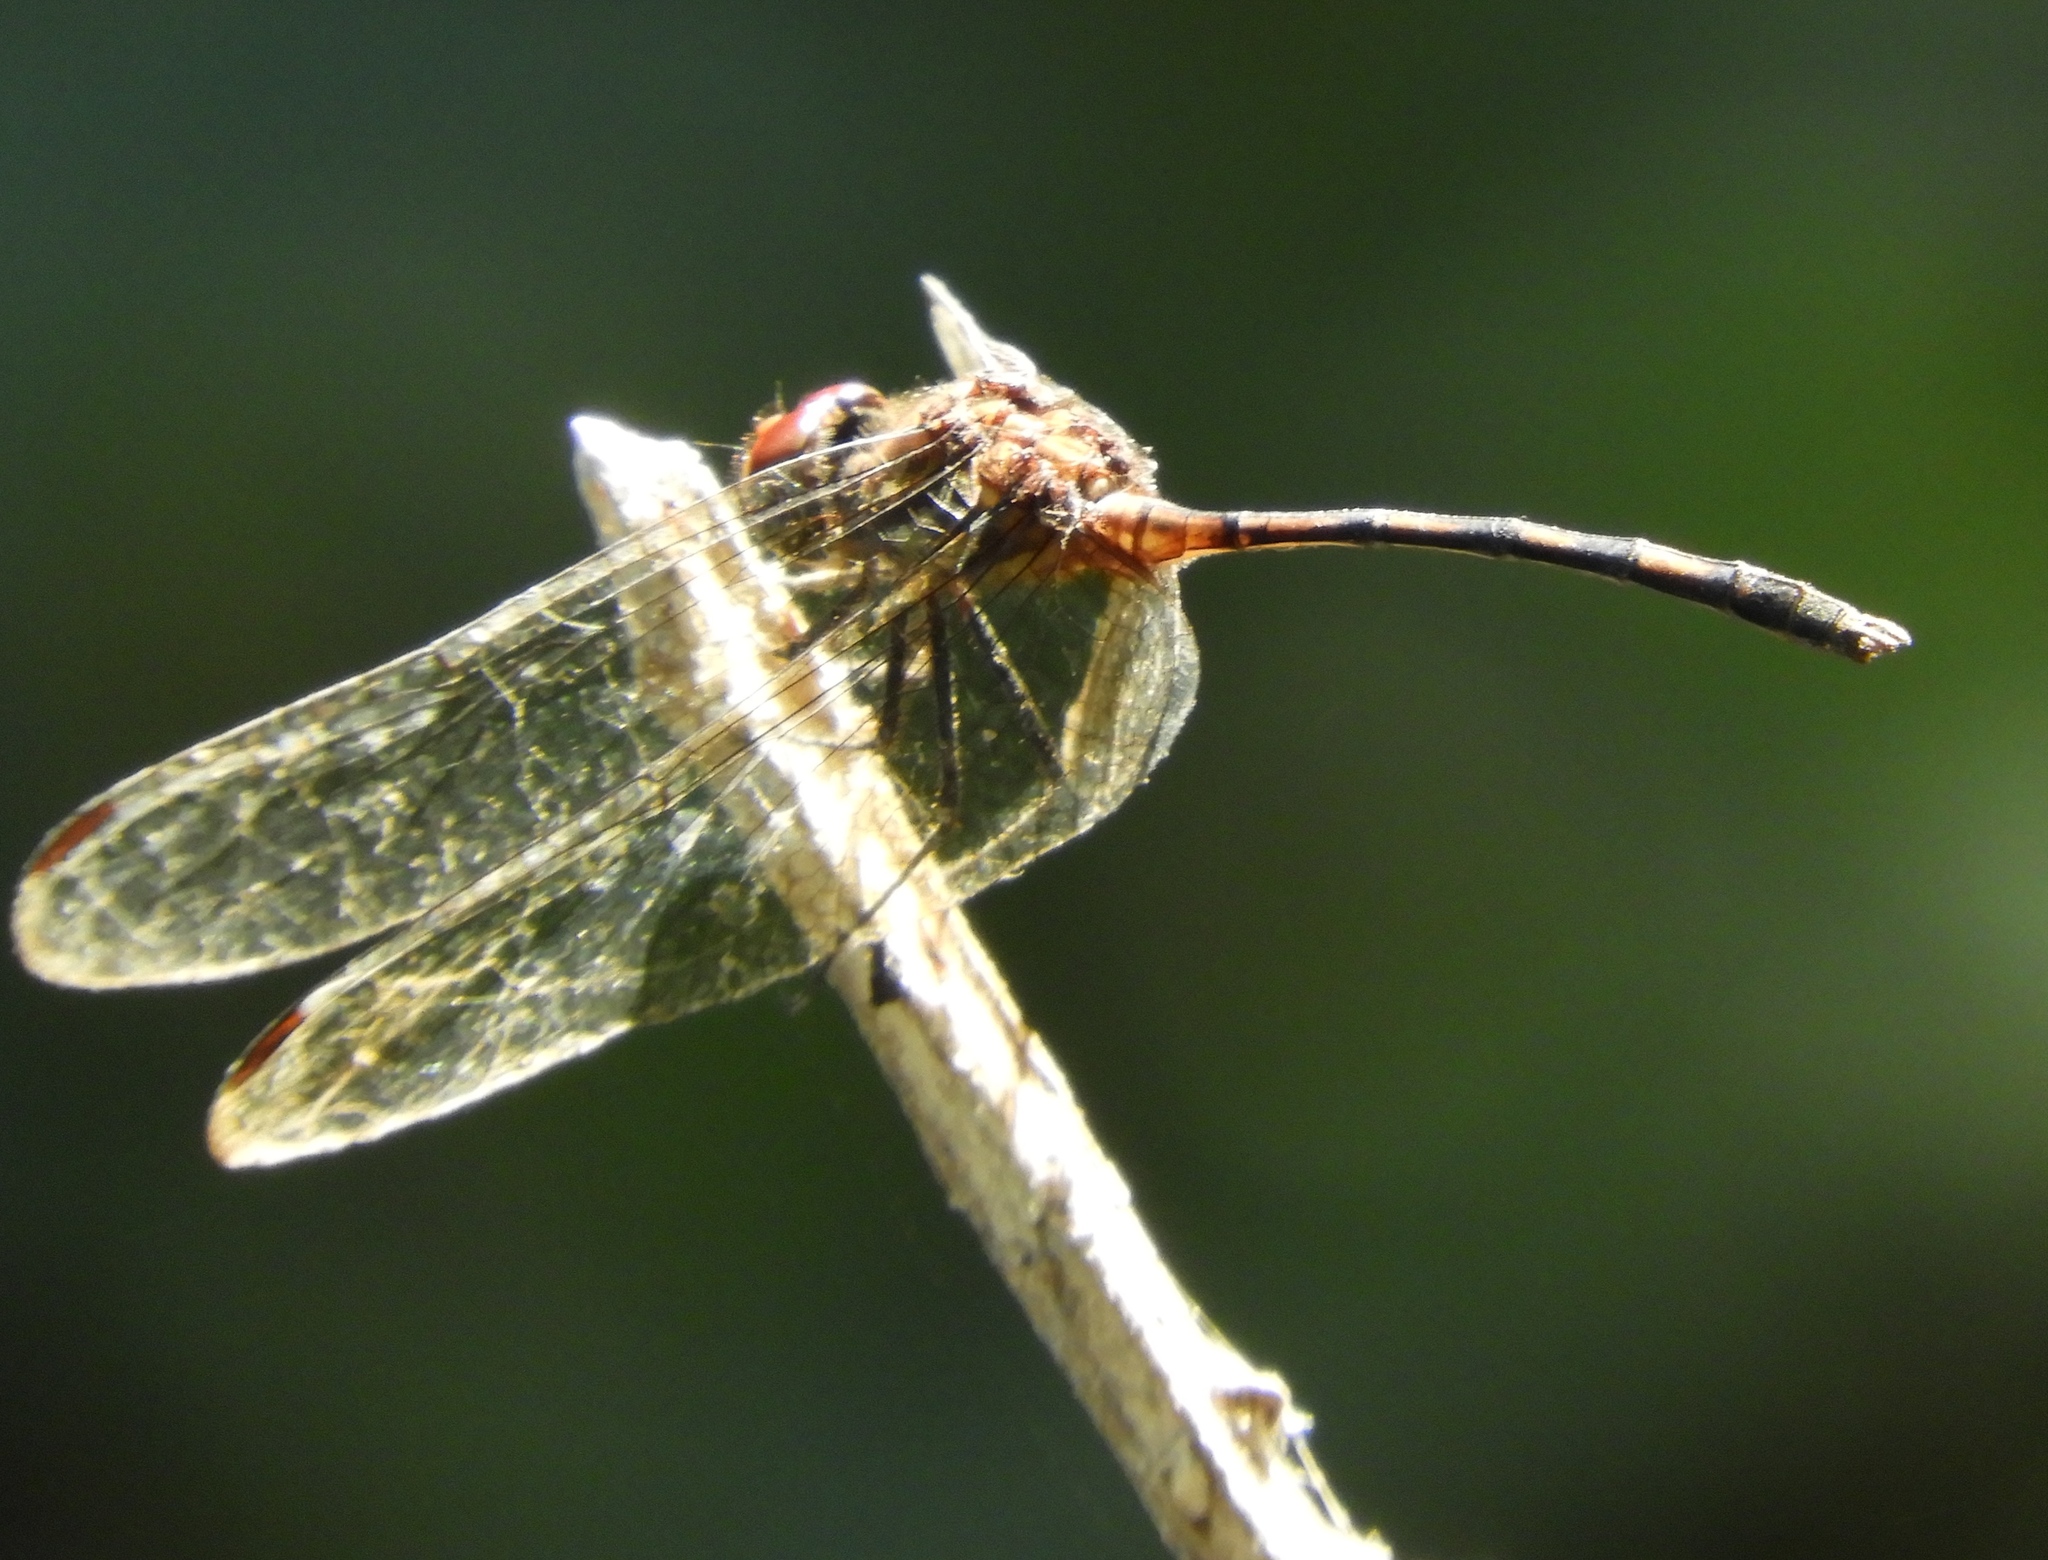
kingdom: Animalia
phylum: Arthropoda
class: Insecta
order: Odonata
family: Libellulidae
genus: Dythemis
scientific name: Dythemis sterilis
